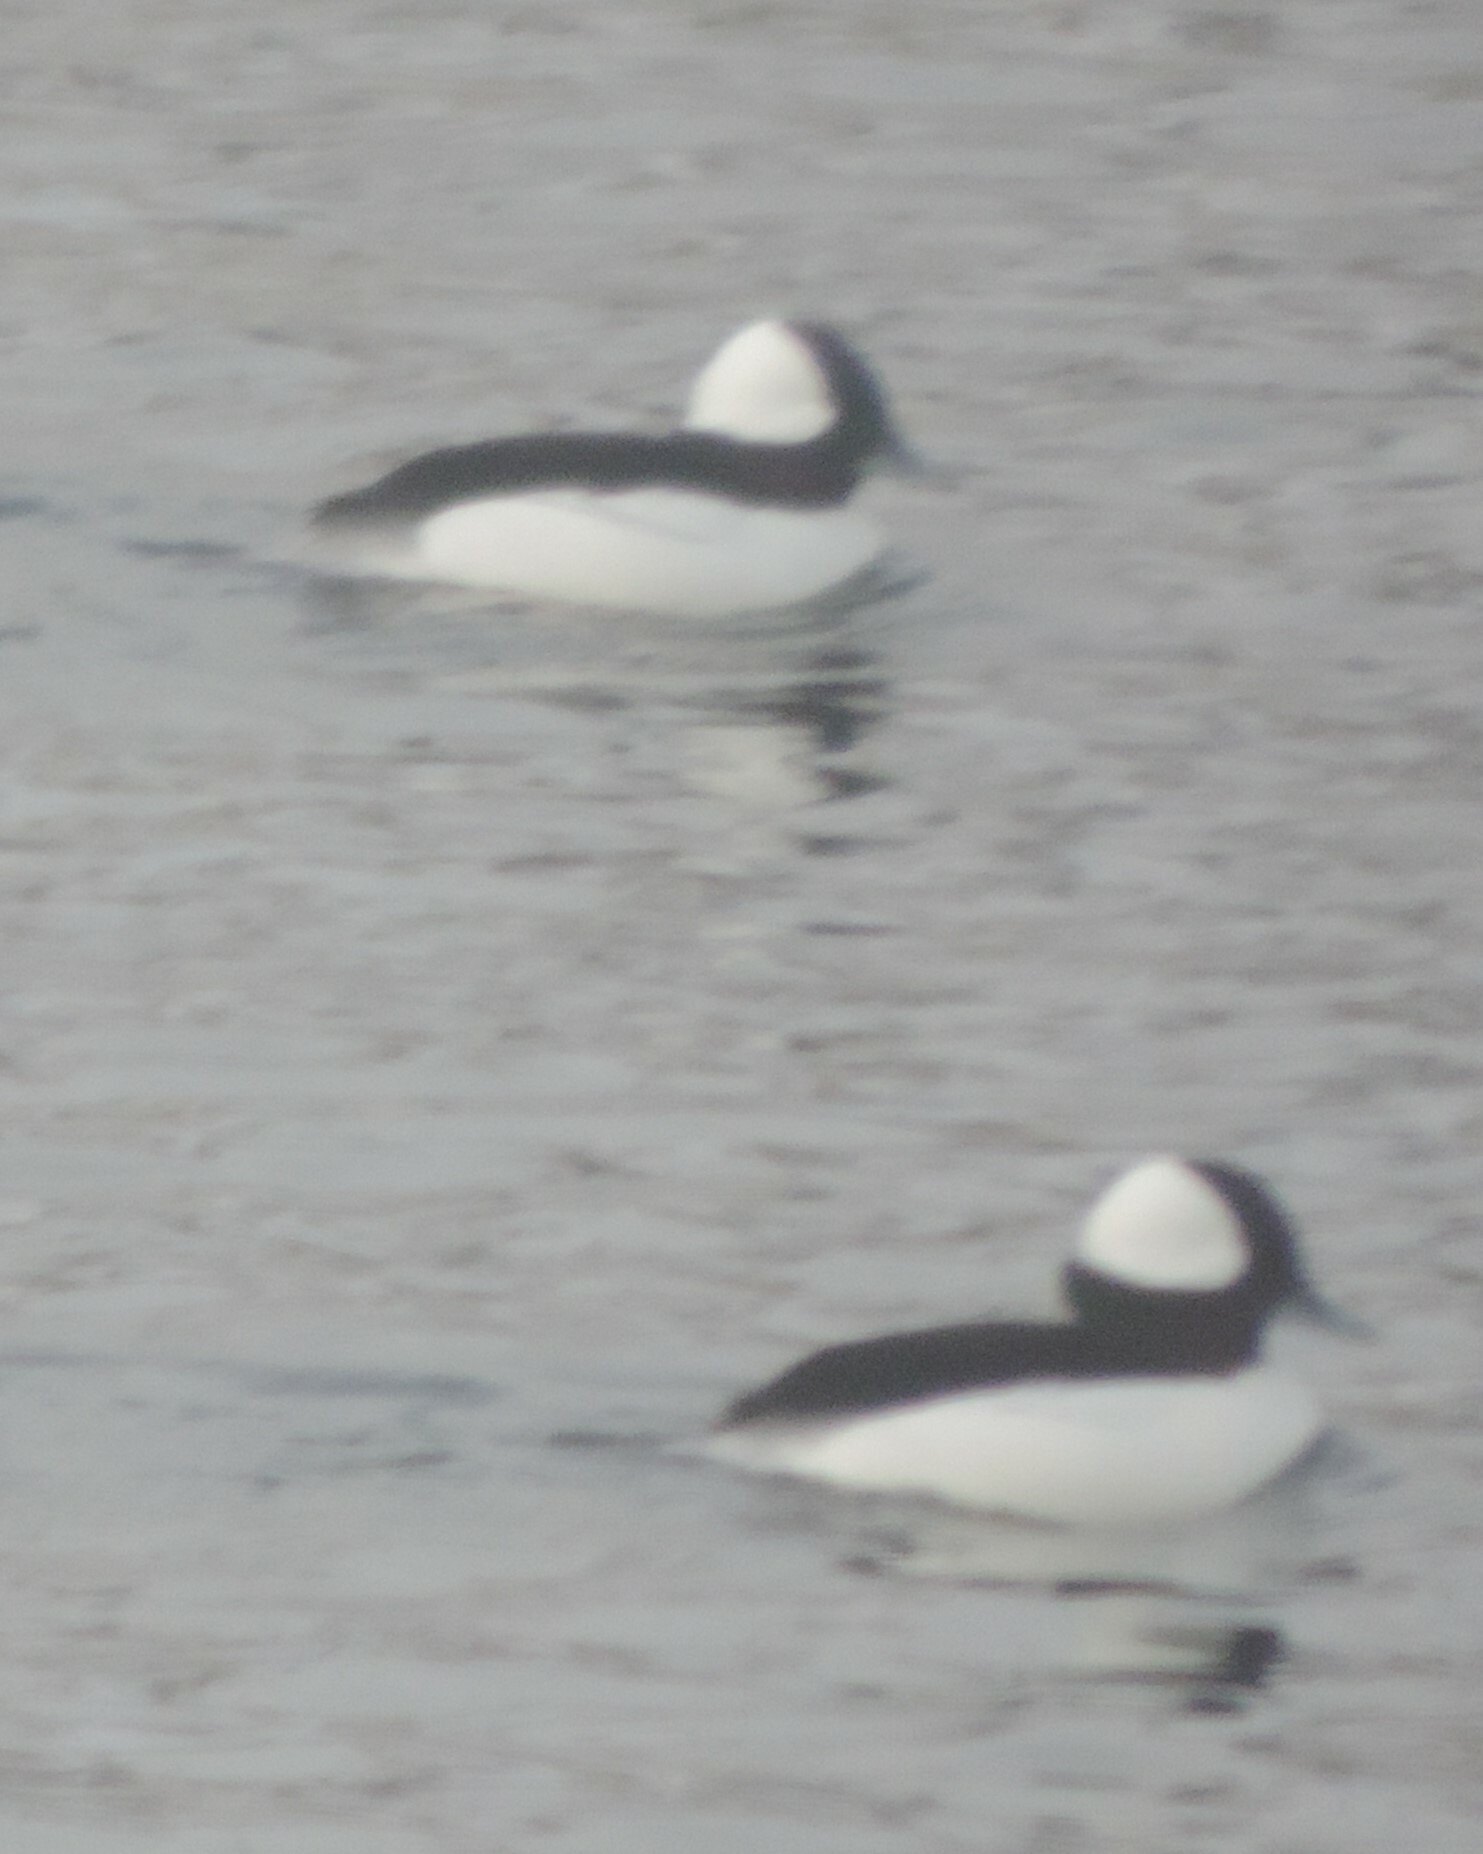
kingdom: Animalia
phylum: Chordata
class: Aves
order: Anseriformes
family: Anatidae
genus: Bucephala
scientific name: Bucephala albeola
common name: Bufflehead
